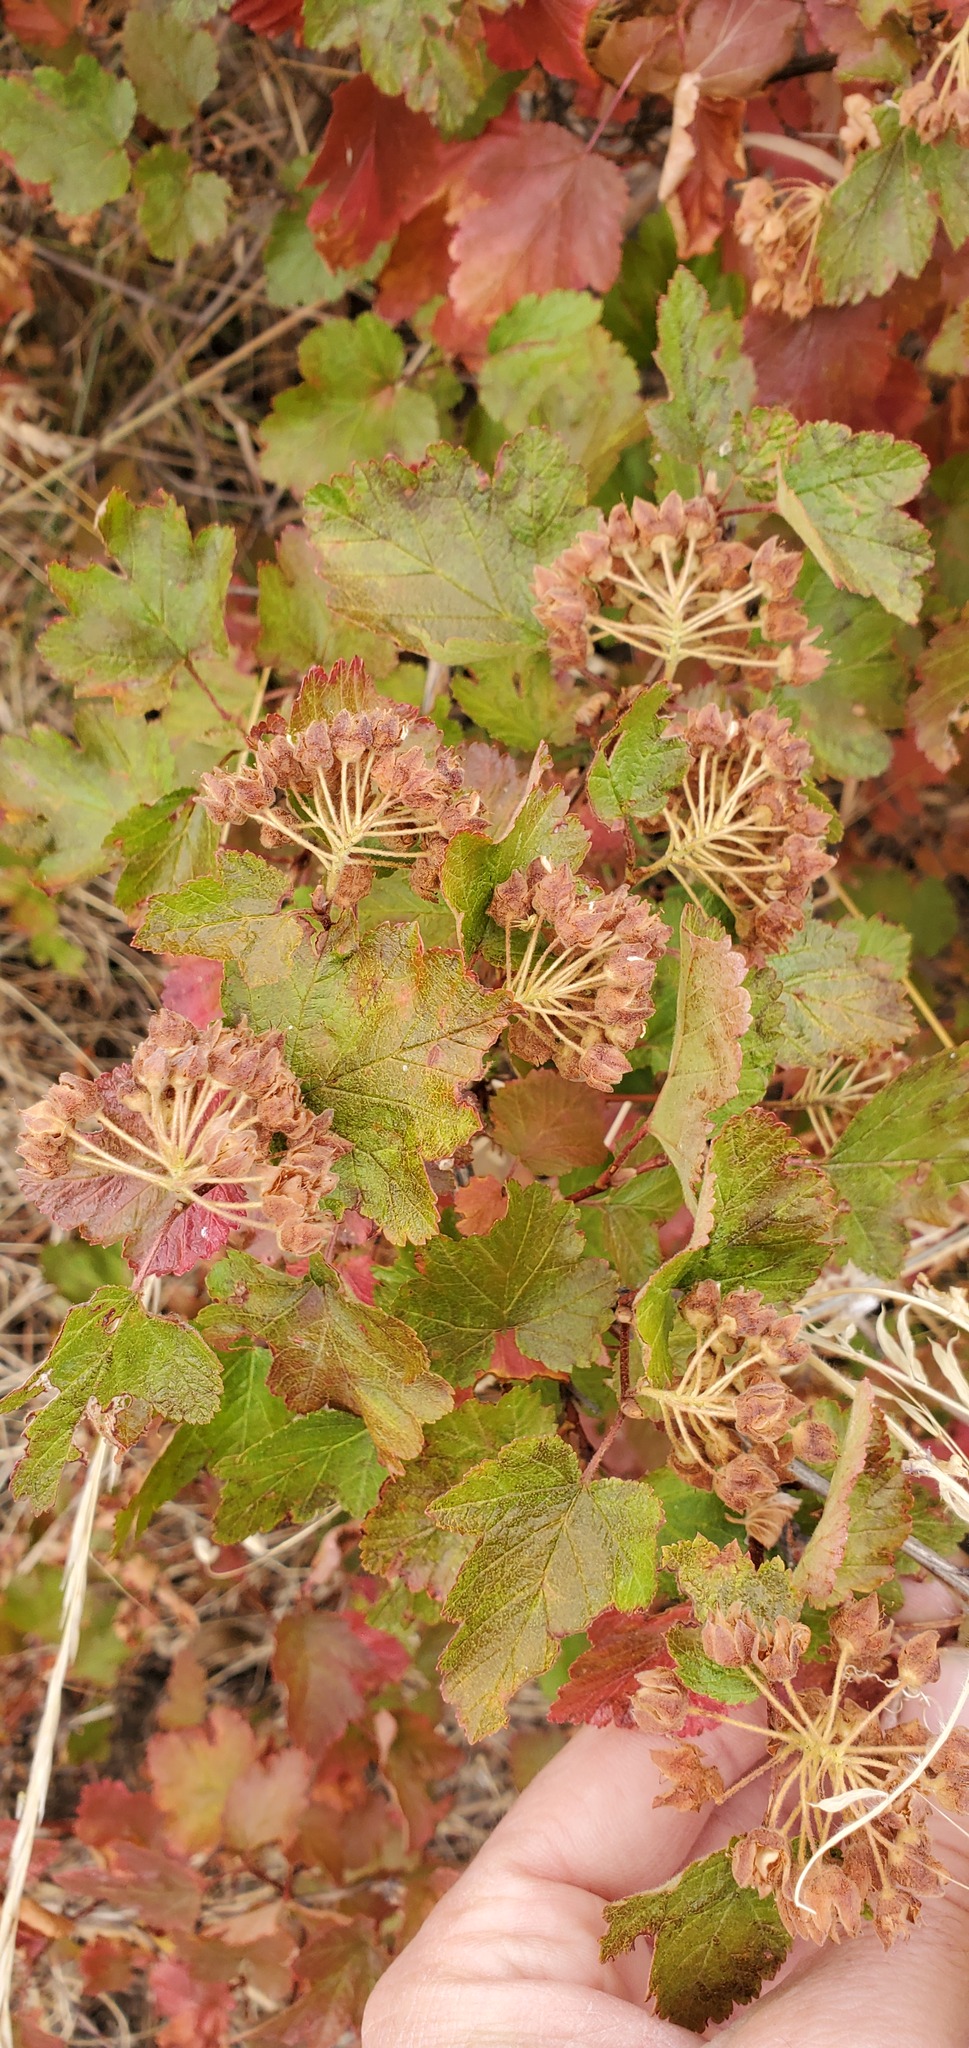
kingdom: Plantae
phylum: Tracheophyta
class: Magnoliopsida
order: Rosales
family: Rosaceae
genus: Physocarpus
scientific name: Physocarpus malvaceus
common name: Mallow ninebark
